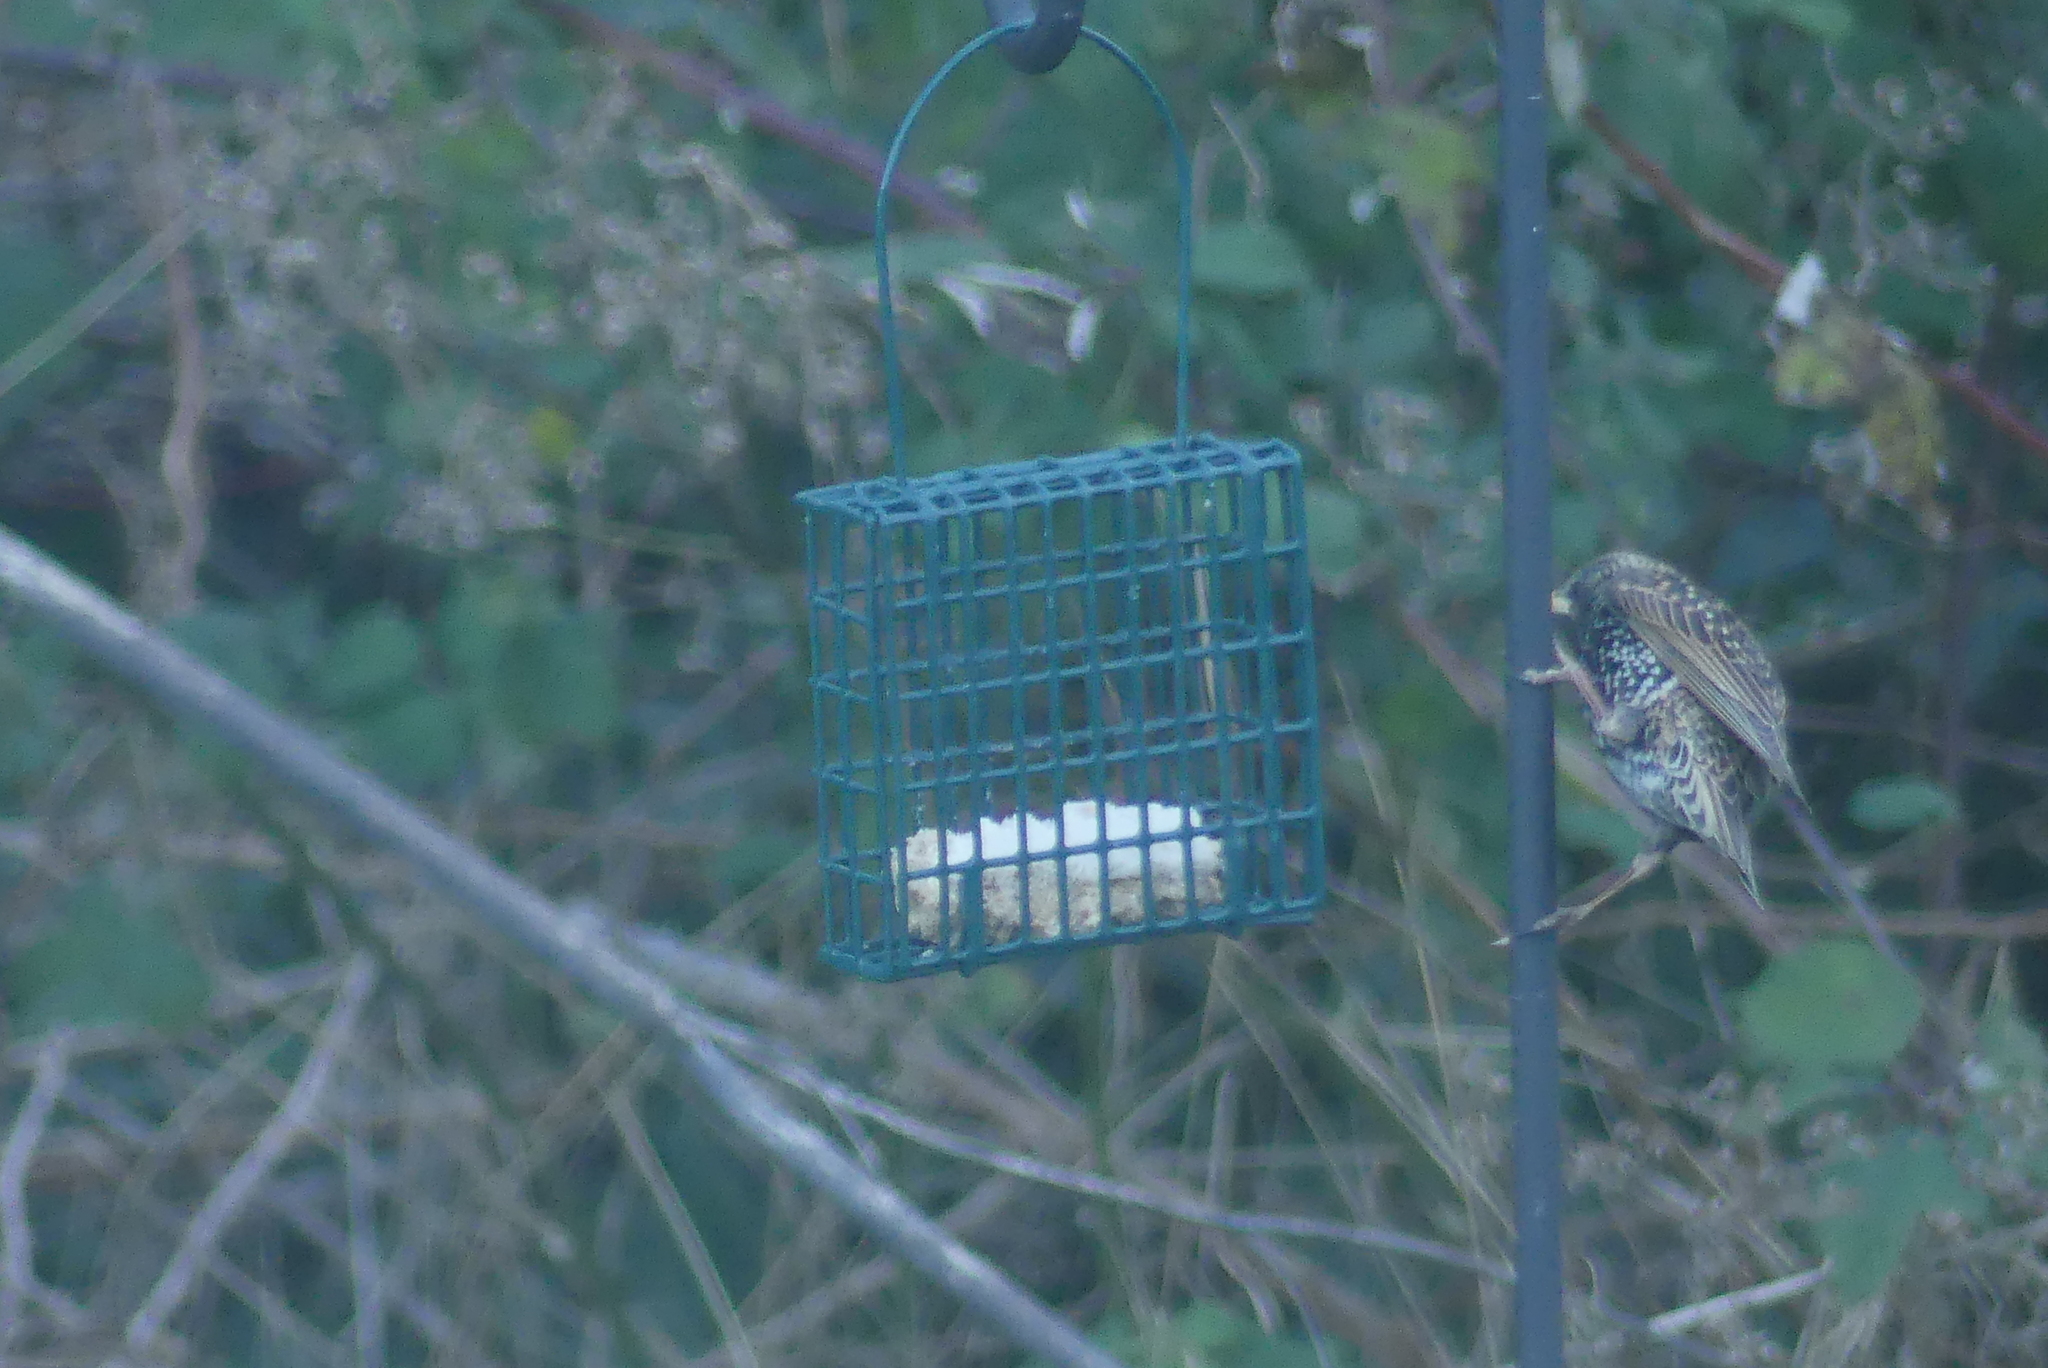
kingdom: Animalia
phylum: Chordata
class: Aves
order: Passeriformes
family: Sturnidae
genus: Sturnus
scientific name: Sturnus vulgaris
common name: Common starling
